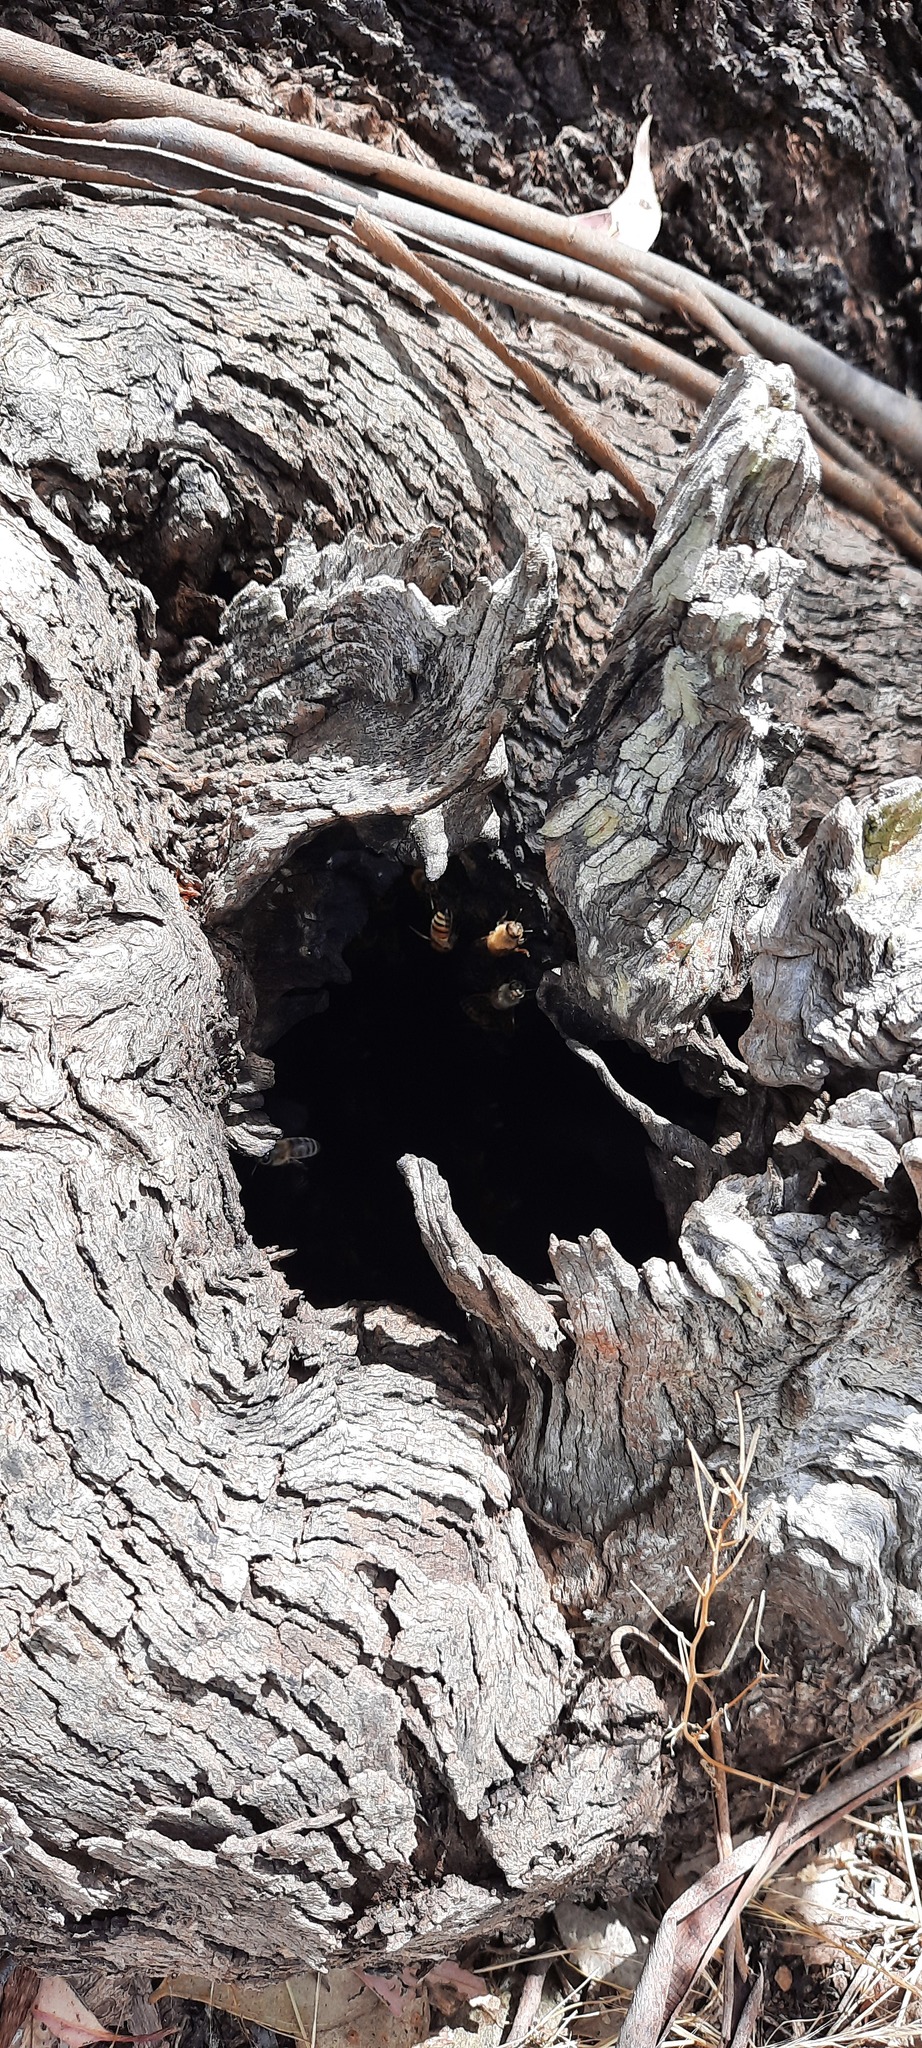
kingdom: Animalia
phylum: Arthropoda
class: Insecta
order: Hymenoptera
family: Apidae
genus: Apis
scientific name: Apis mellifera
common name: Honey bee
